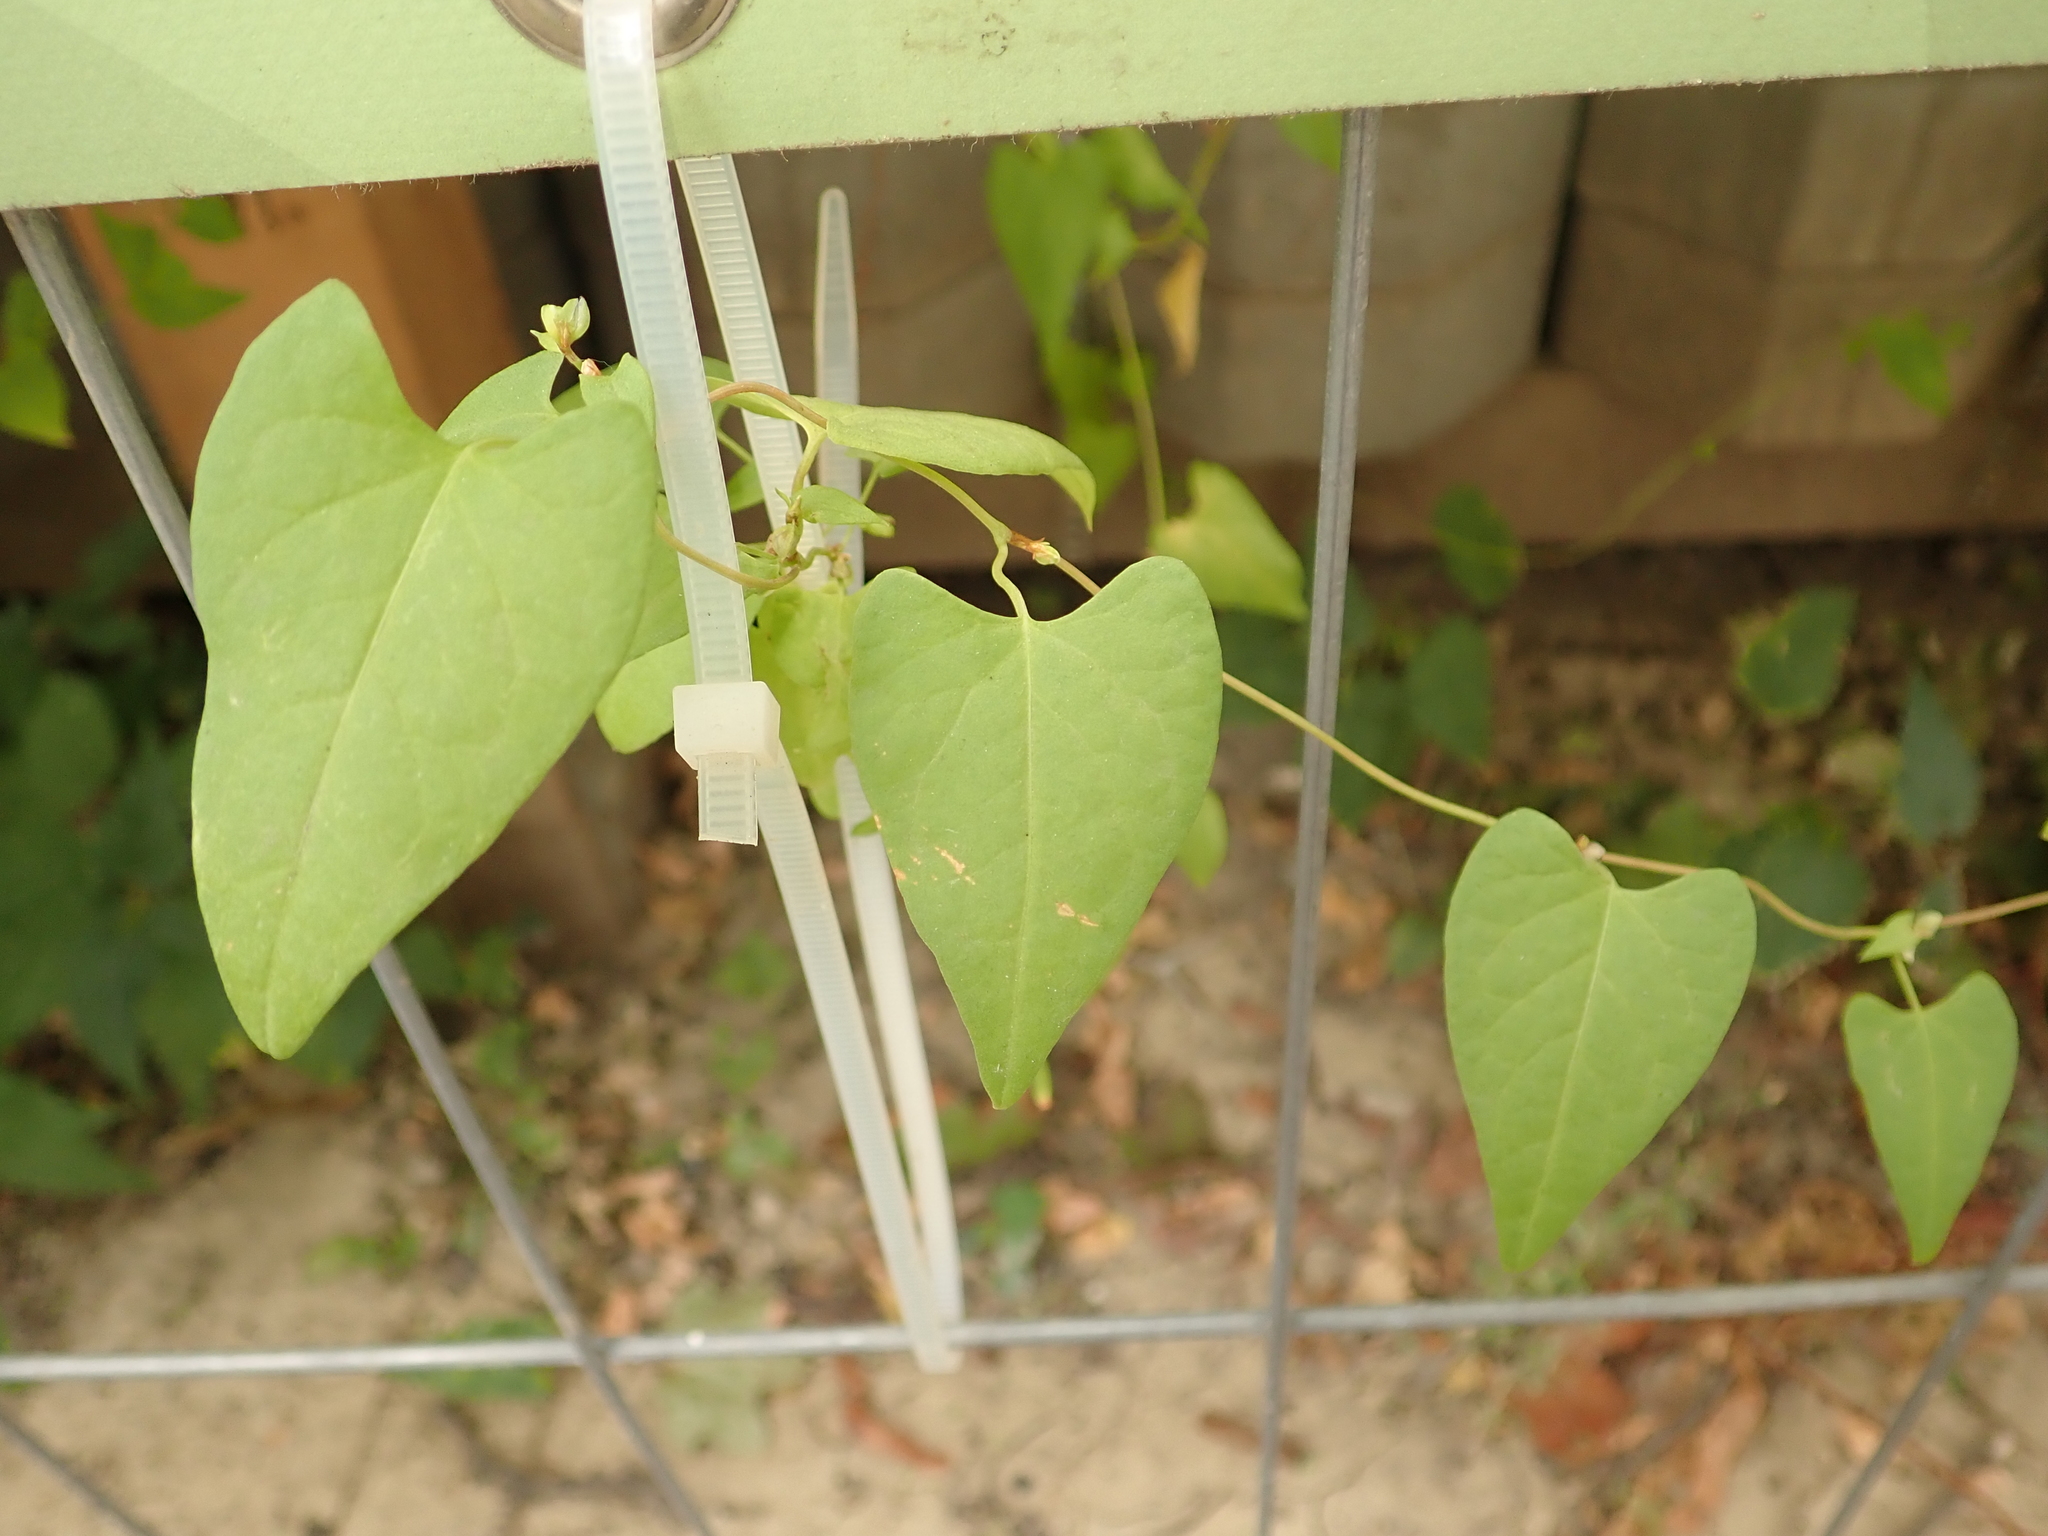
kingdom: Plantae
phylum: Tracheophyta
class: Magnoliopsida
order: Caryophyllales
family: Polygonaceae
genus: Fallopia
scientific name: Fallopia convolvulus
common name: Black bindweed
